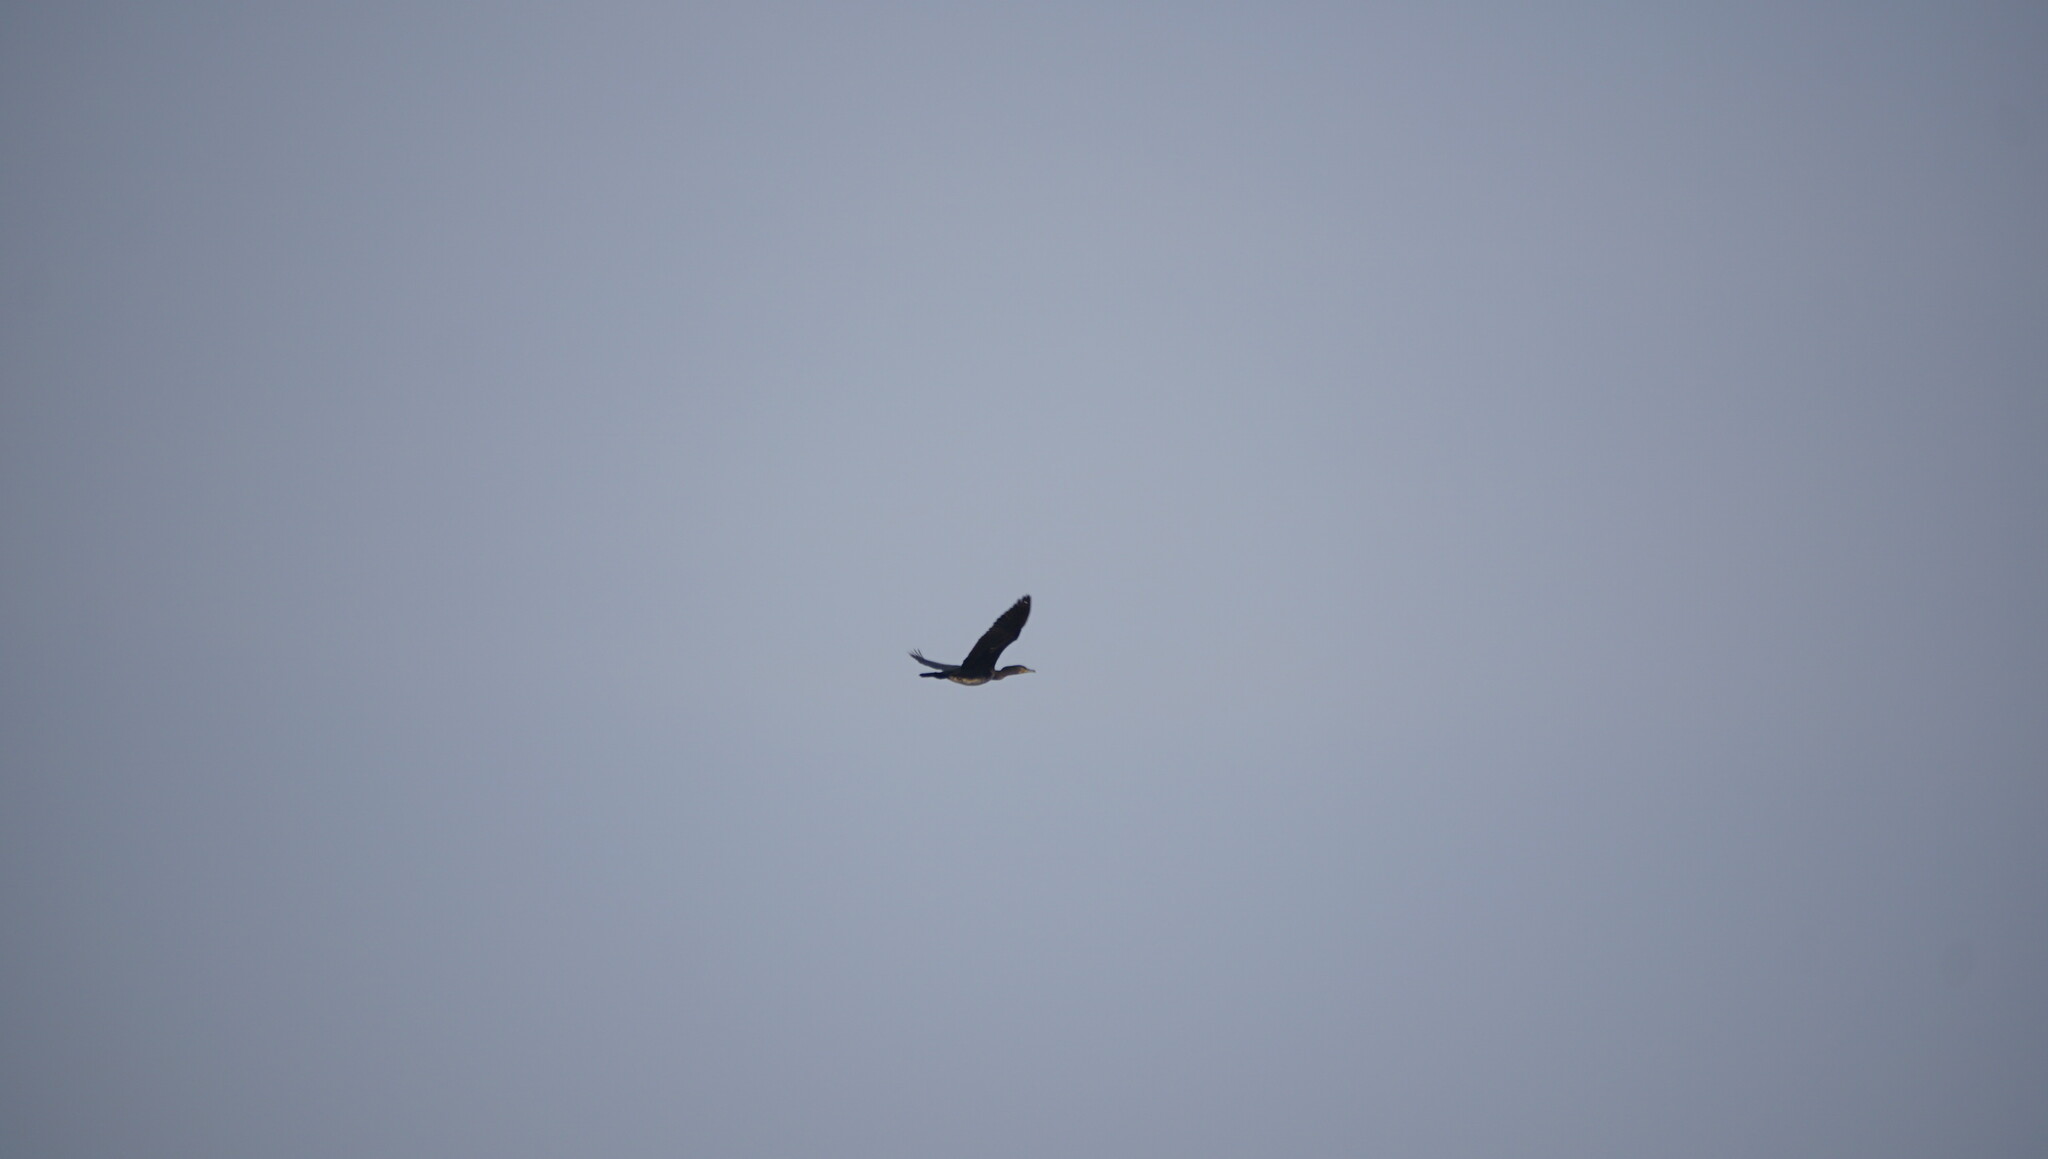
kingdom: Animalia
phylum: Chordata
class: Aves
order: Suliformes
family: Phalacrocoracidae
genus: Phalacrocorax
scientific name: Phalacrocorax carbo
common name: Great cormorant
